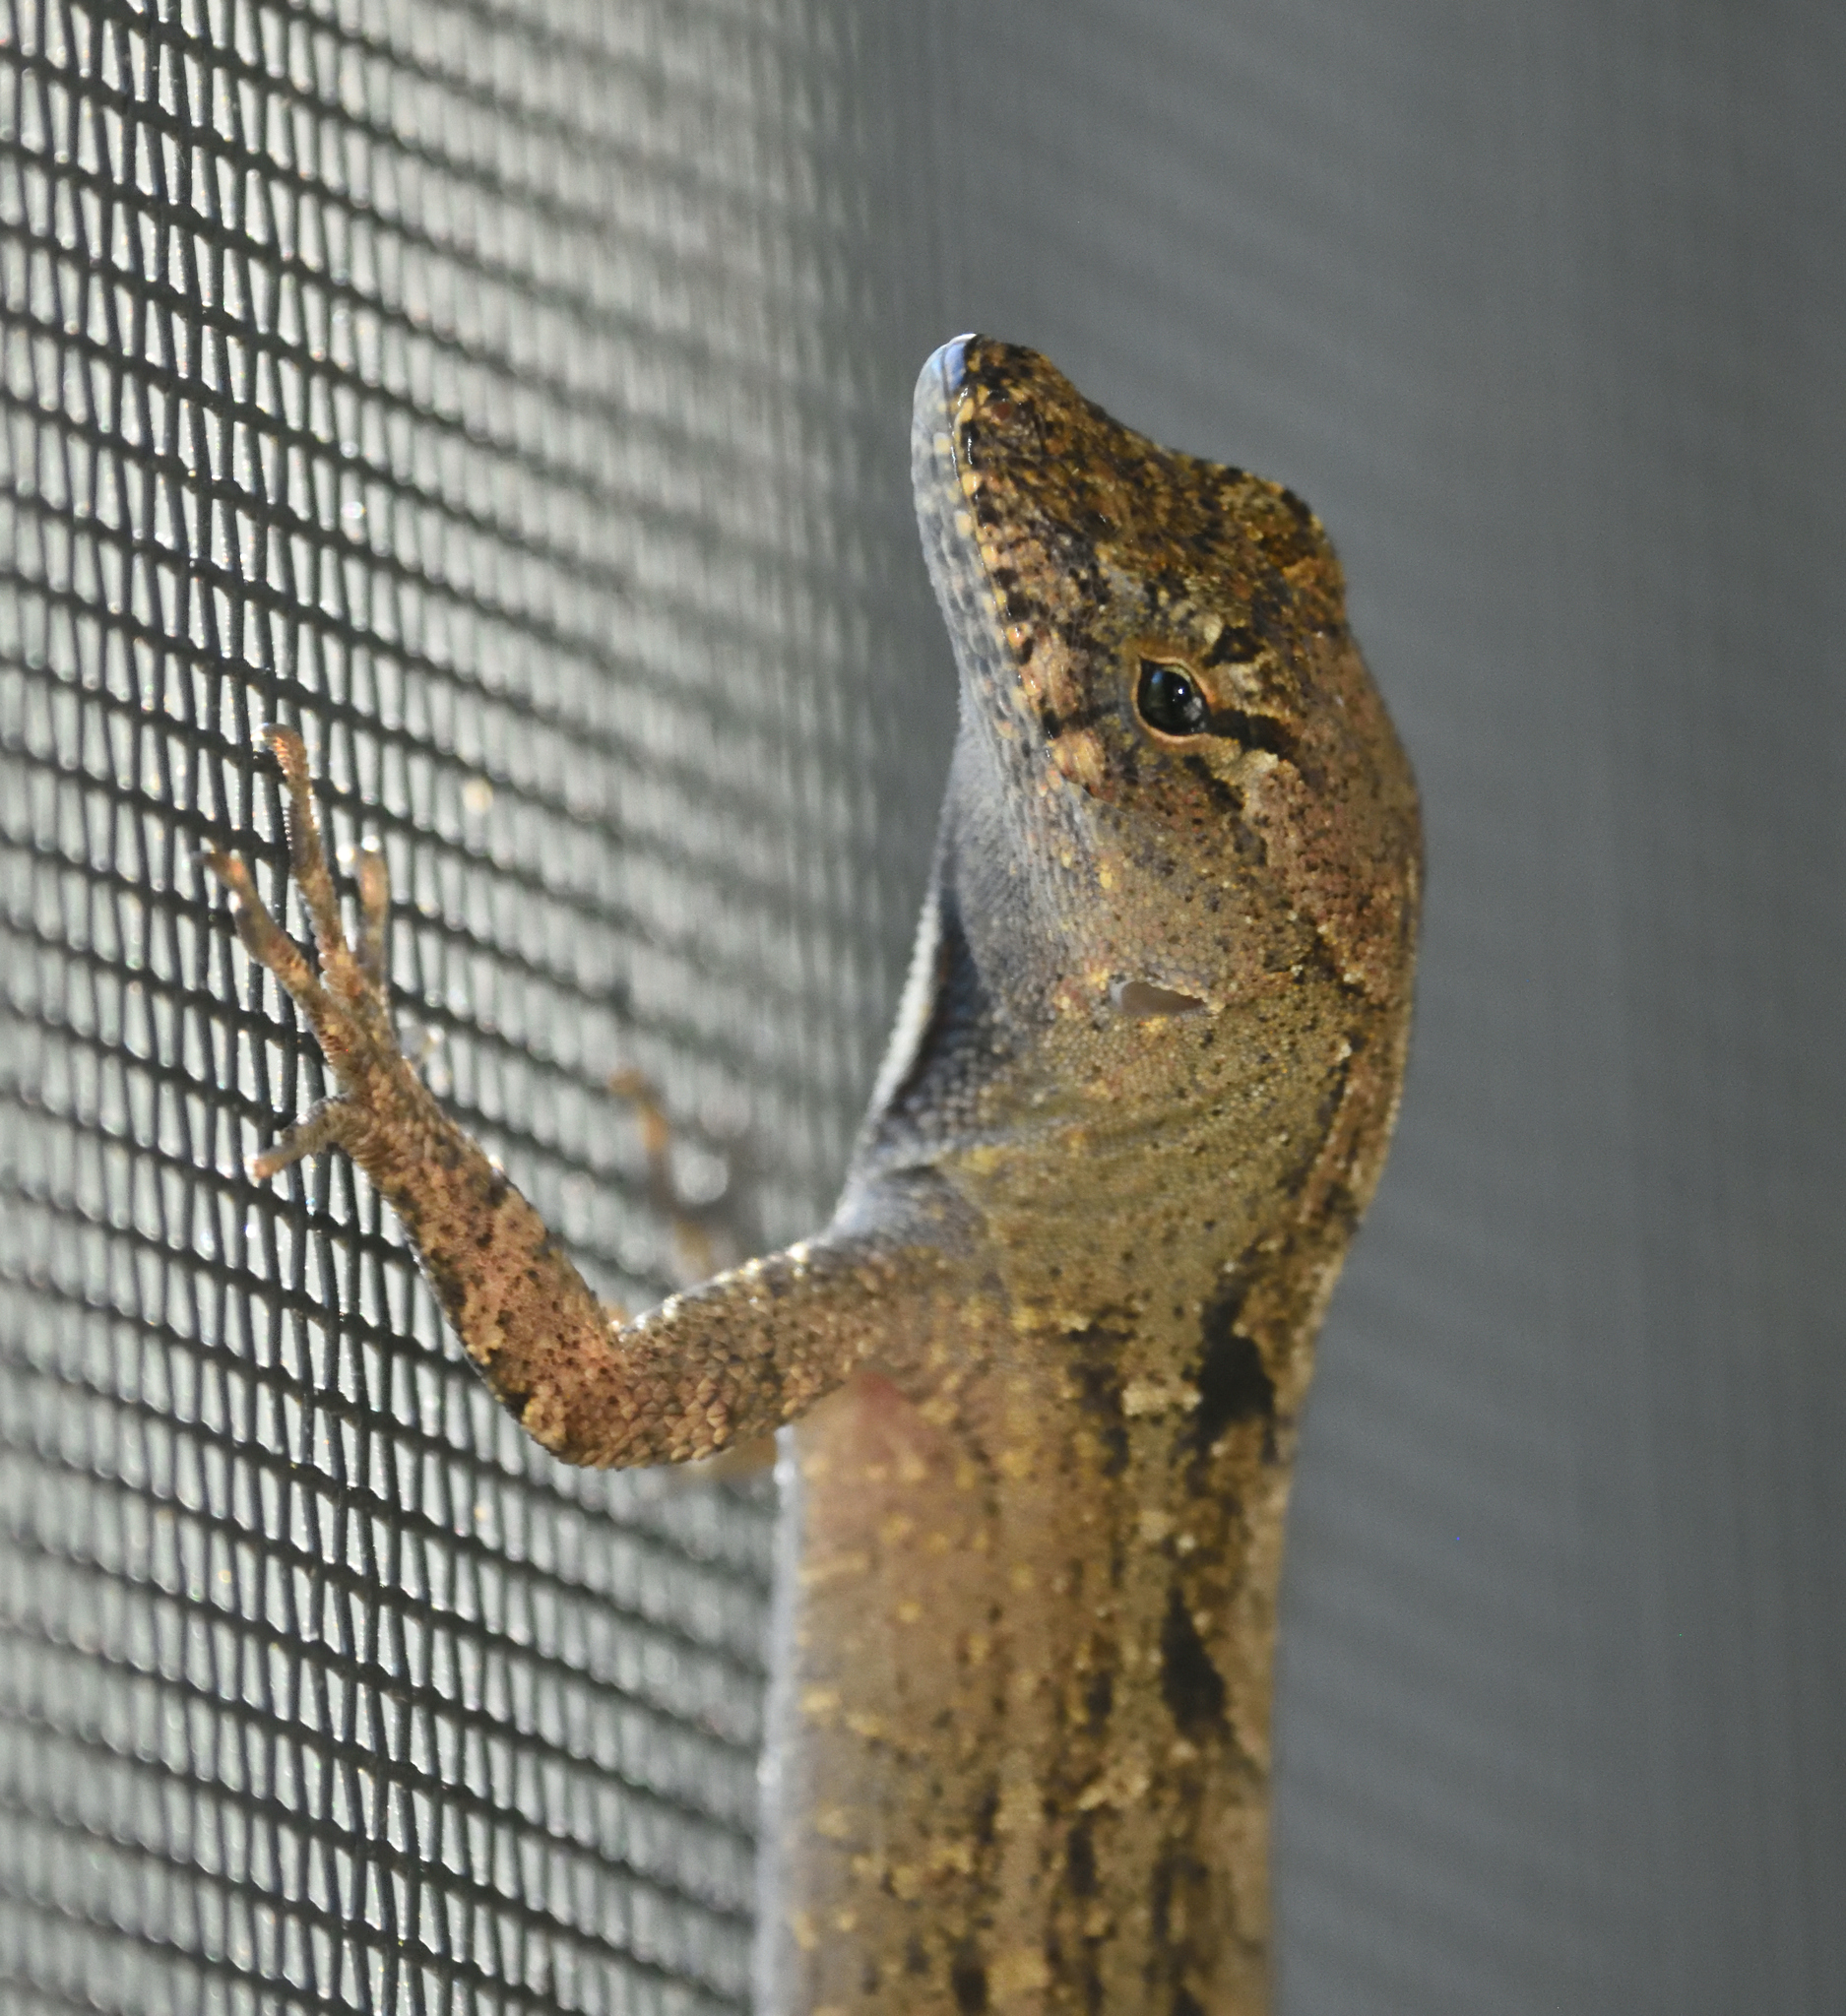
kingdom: Animalia
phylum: Chordata
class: Squamata
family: Dactyloidae
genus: Anolis
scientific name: Anolis sagrei
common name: Brown anole
